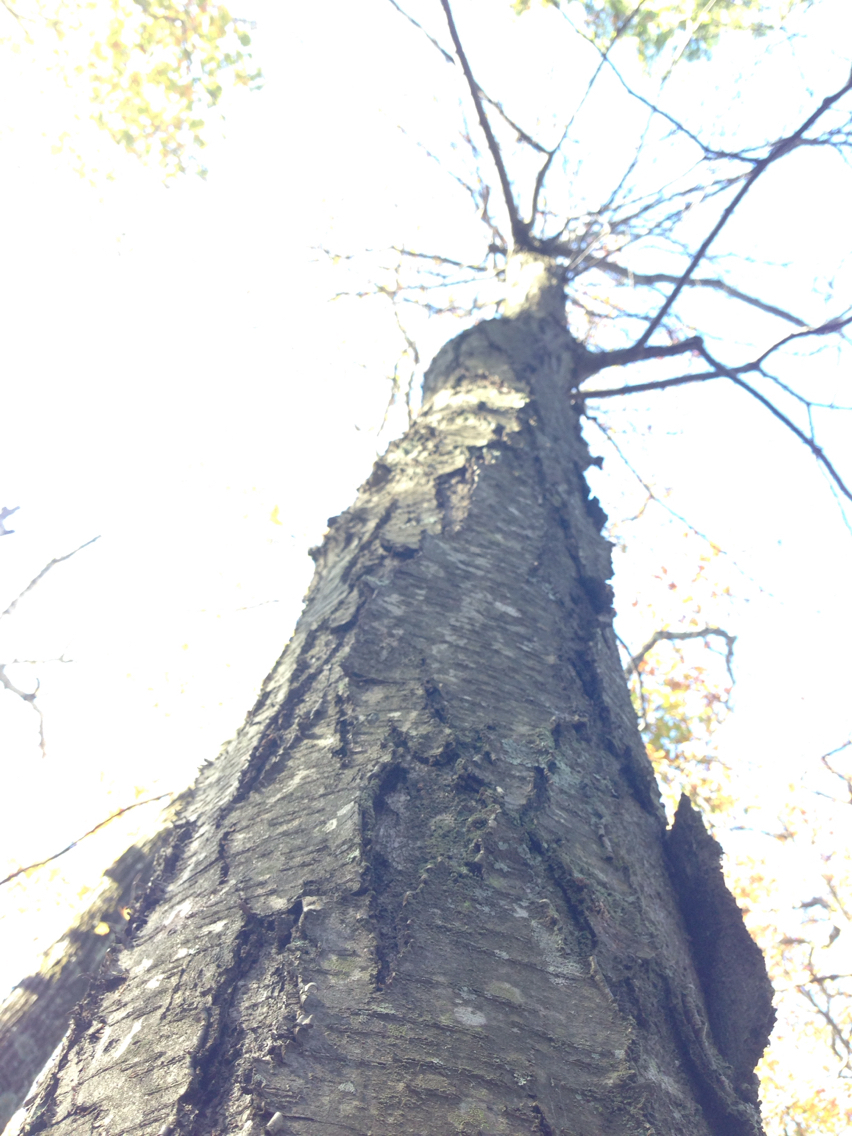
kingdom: Plantae
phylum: Tracheophyta
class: Magnoliopsida
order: Fagales
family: Betulaceae
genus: Betula
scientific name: Betula lenta
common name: Black birch
